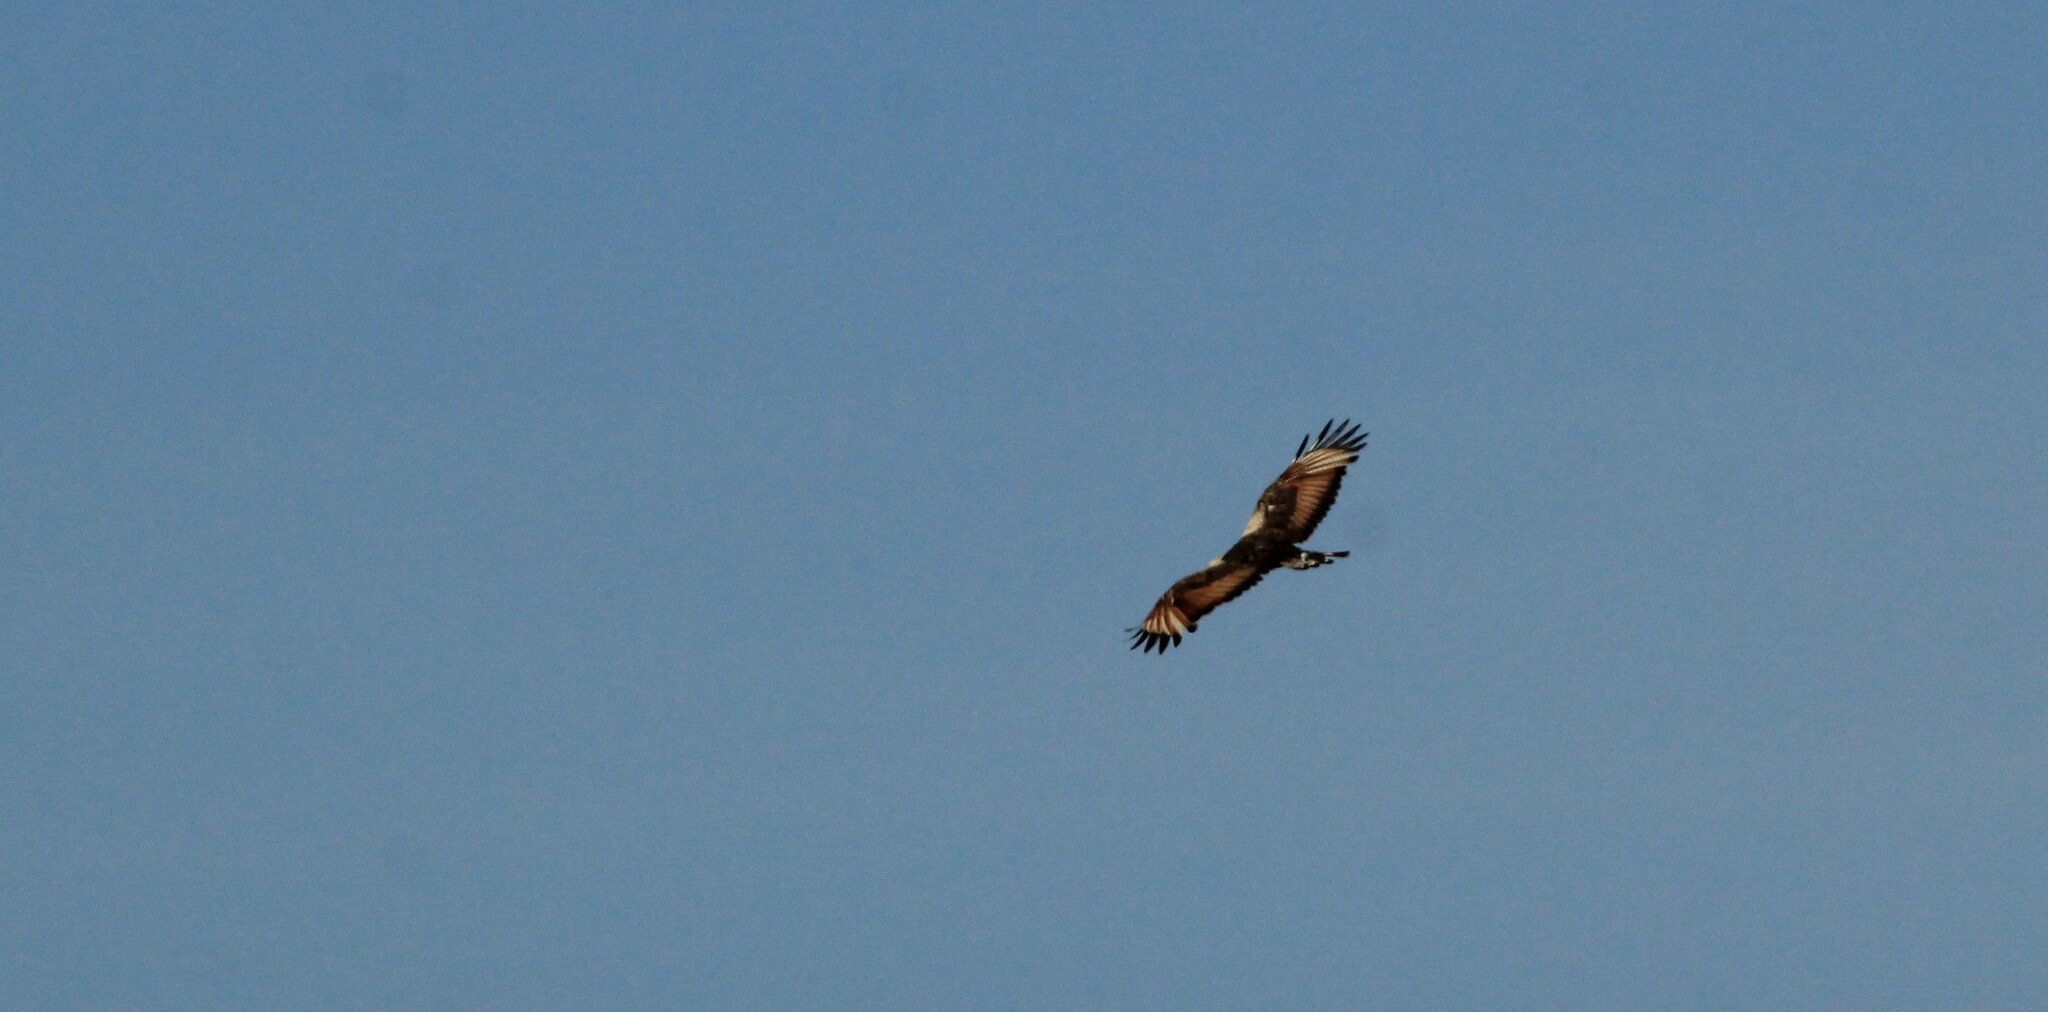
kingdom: Animalia
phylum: Chordata
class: Aves
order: Accipitriformes
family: Accipitridae
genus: Buteogallus
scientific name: Buteogallus meridionalis
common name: Savanna hawk
